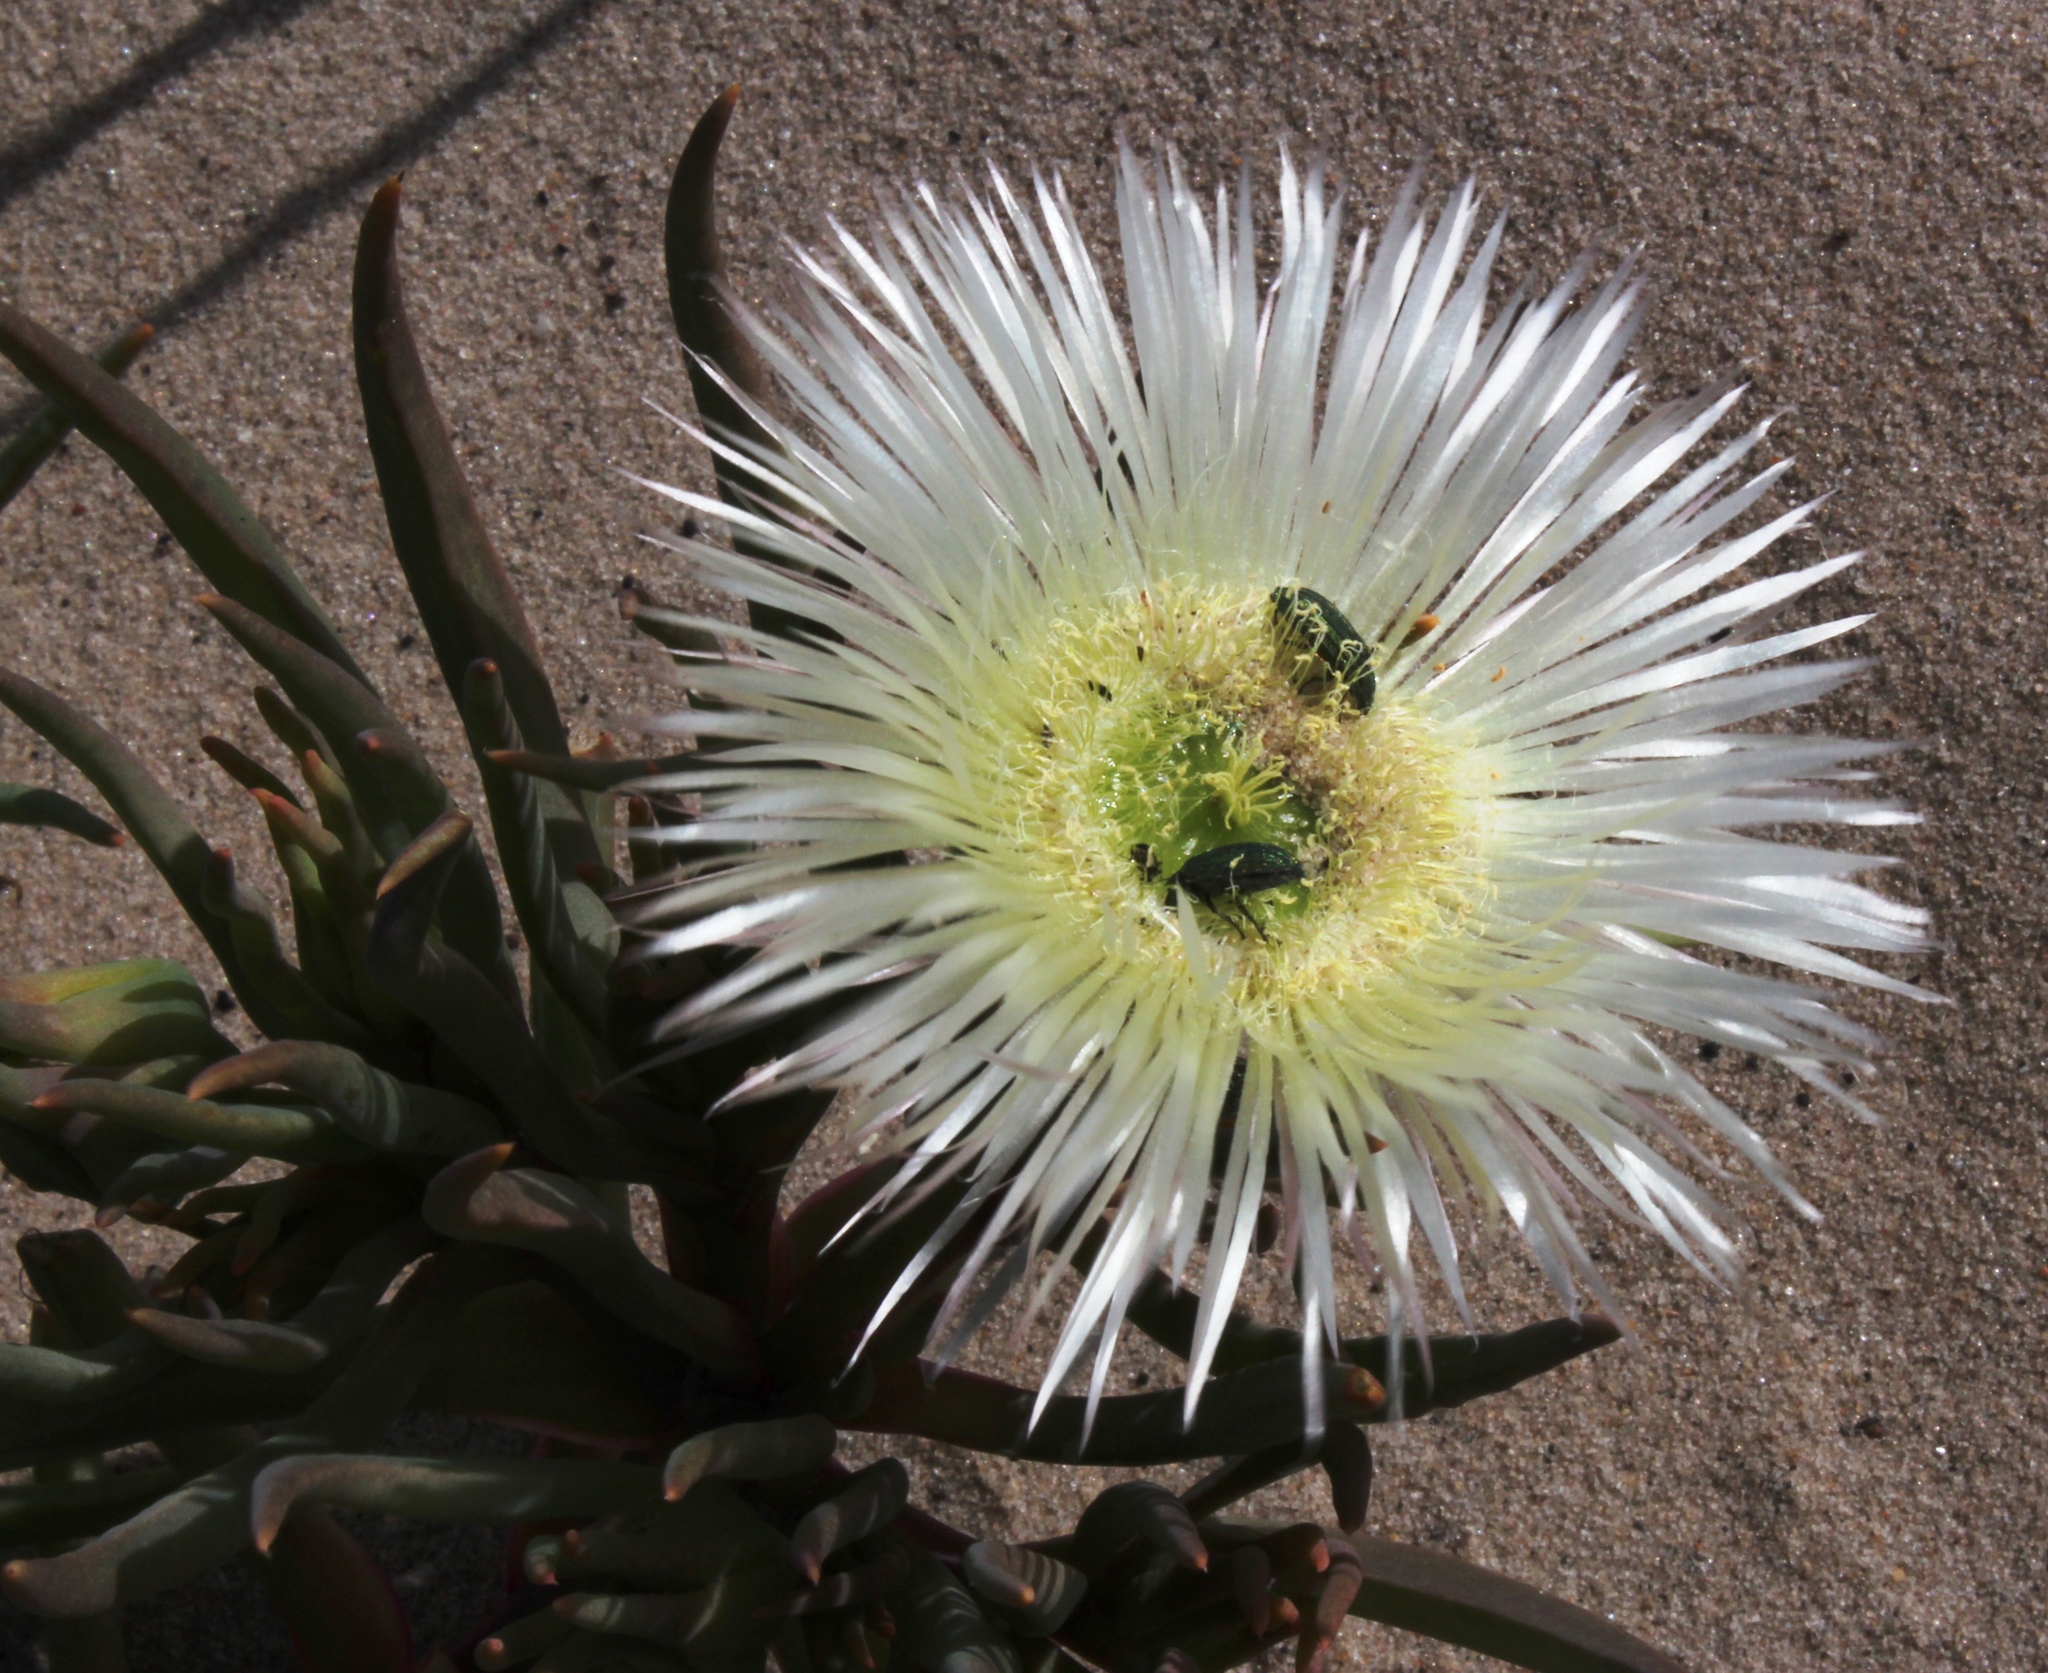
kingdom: Plantae
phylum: Tracheophyta
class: Magnoliopsida
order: Caryophyllales
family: Aizoaceae
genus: Conicosia
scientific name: Conicosia pugioniformis
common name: Narrow-leaved iceplant
